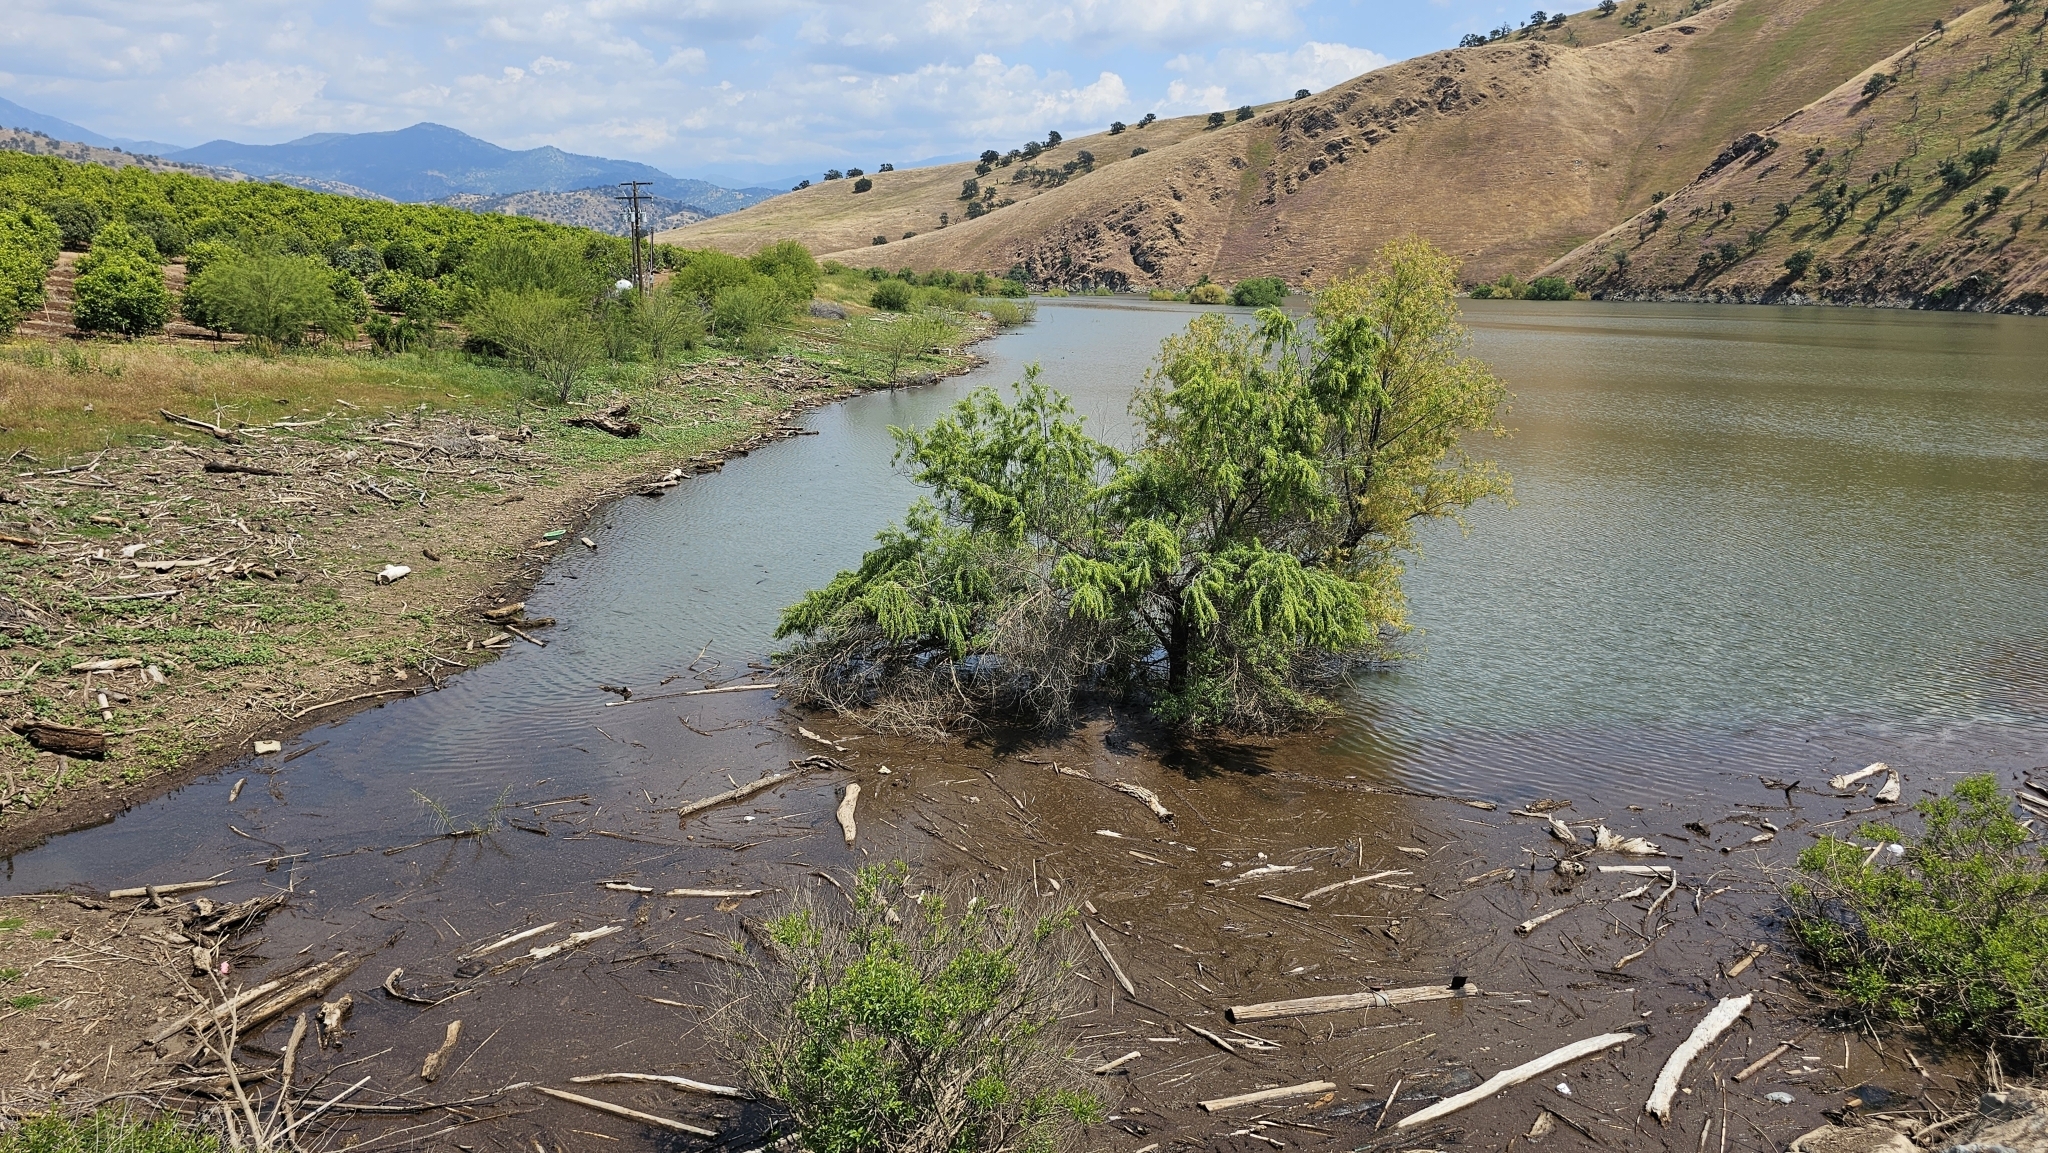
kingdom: Animalia
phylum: Chordata
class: Testudines
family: Emydidae
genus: Trachemys
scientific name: Trachemys scripta
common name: Slider
